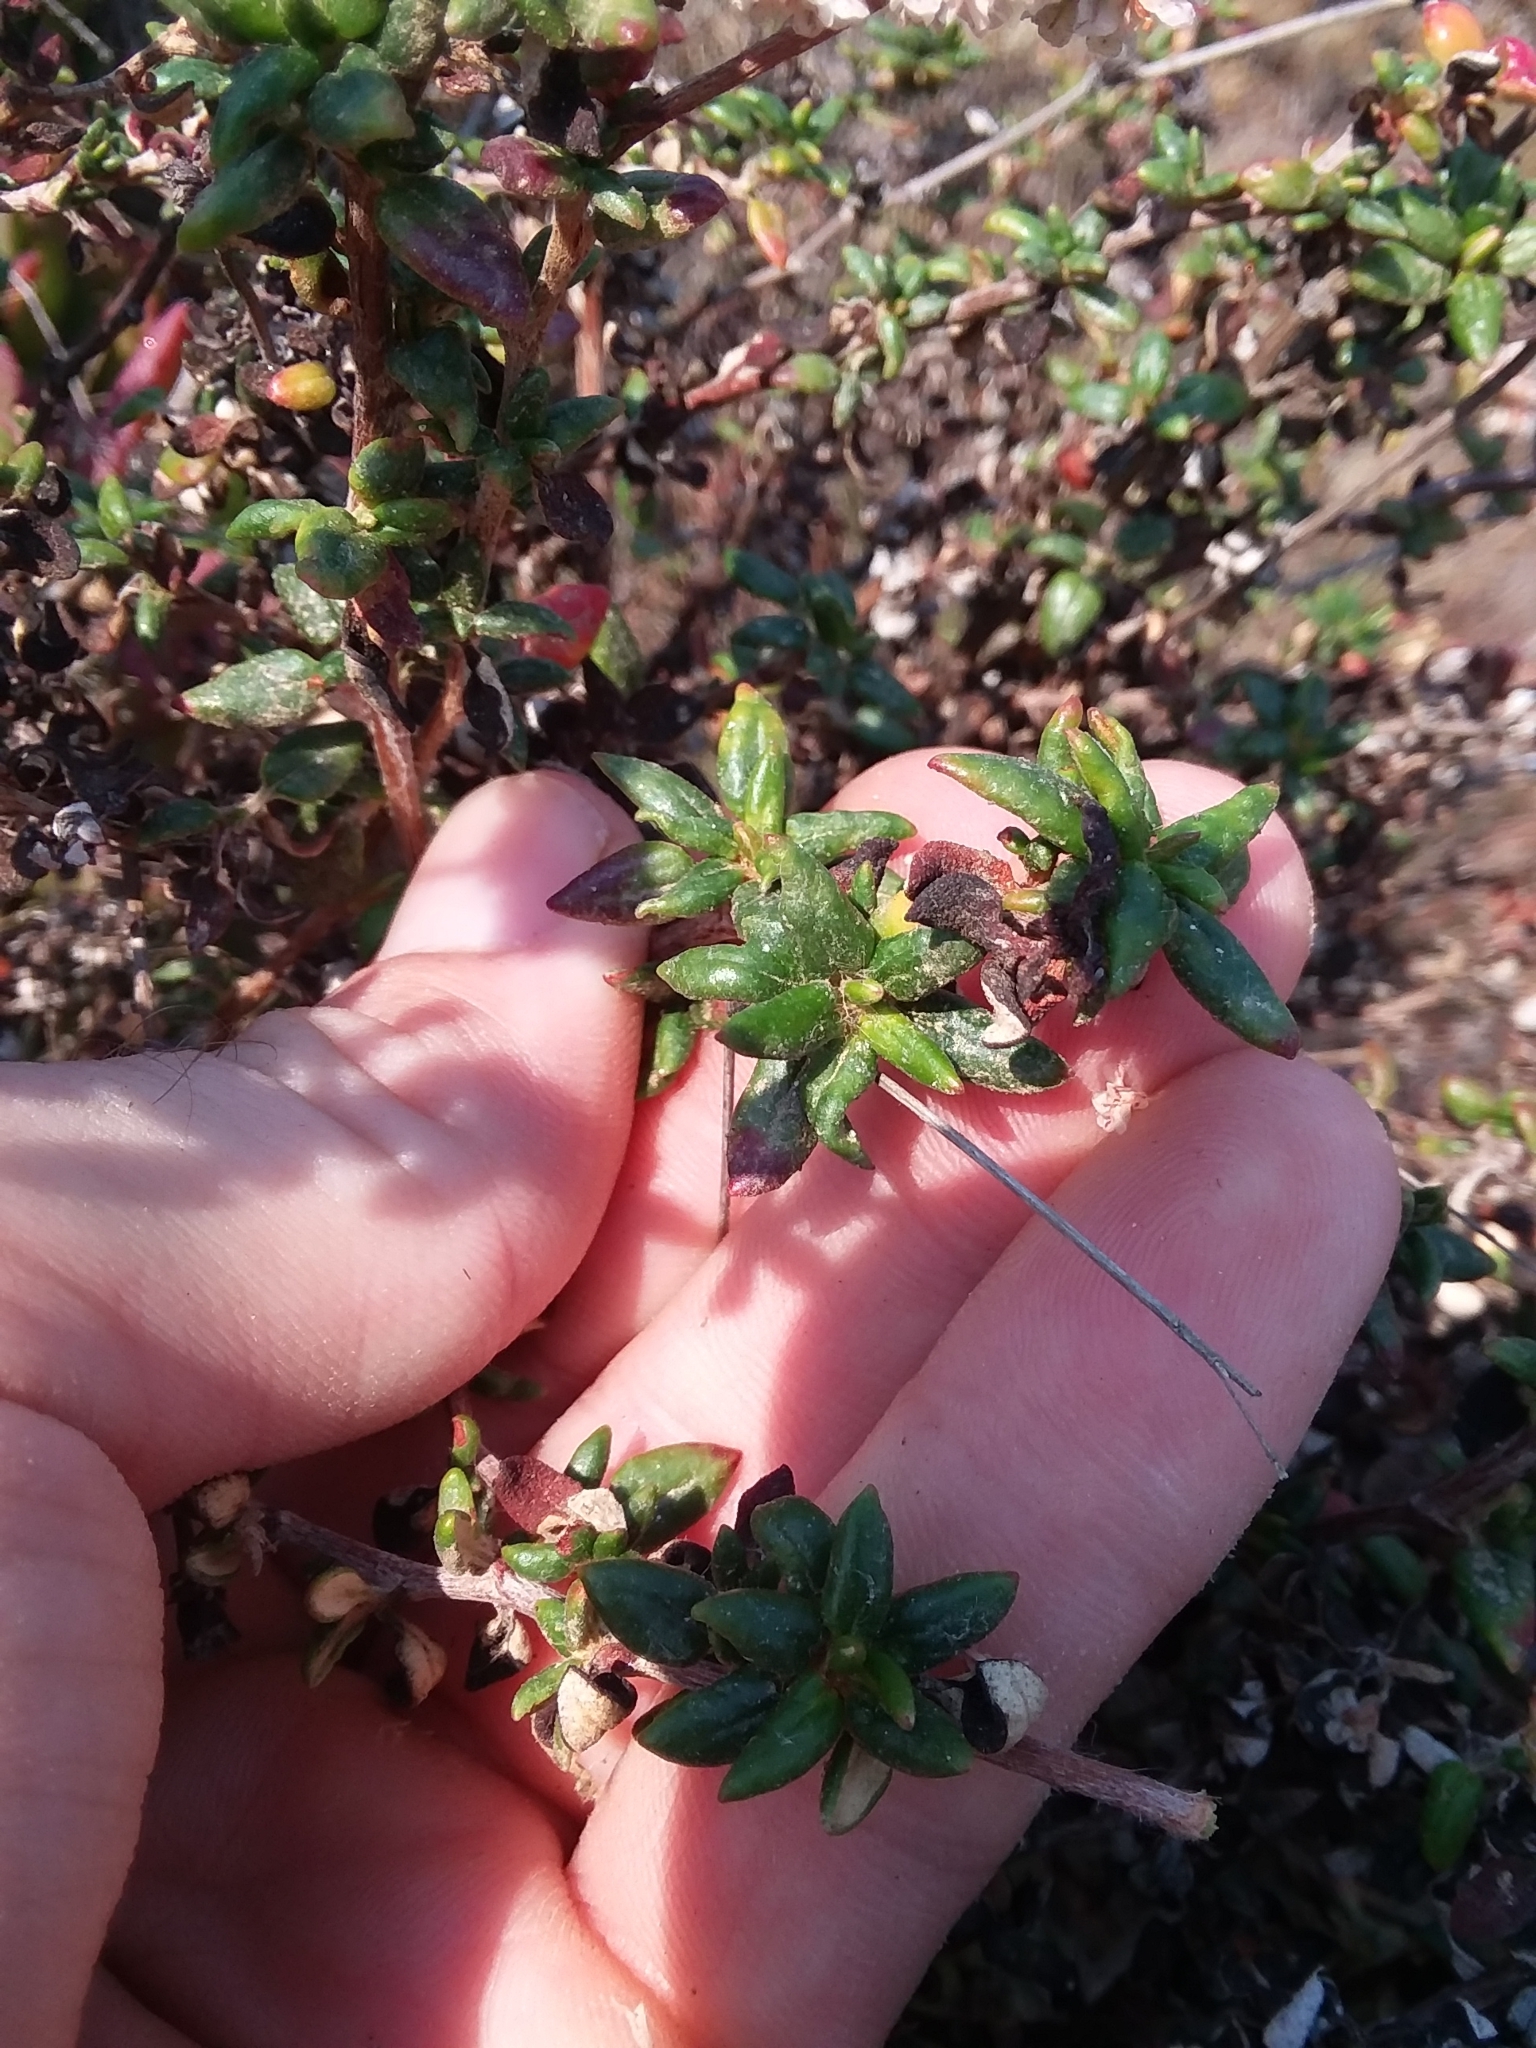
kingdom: Plantae
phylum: Tracheophyta
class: Magnoliopsida
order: Caryophyllales
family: Polygonaceae
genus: Eriogonum
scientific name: Eriogonum parvifolium
